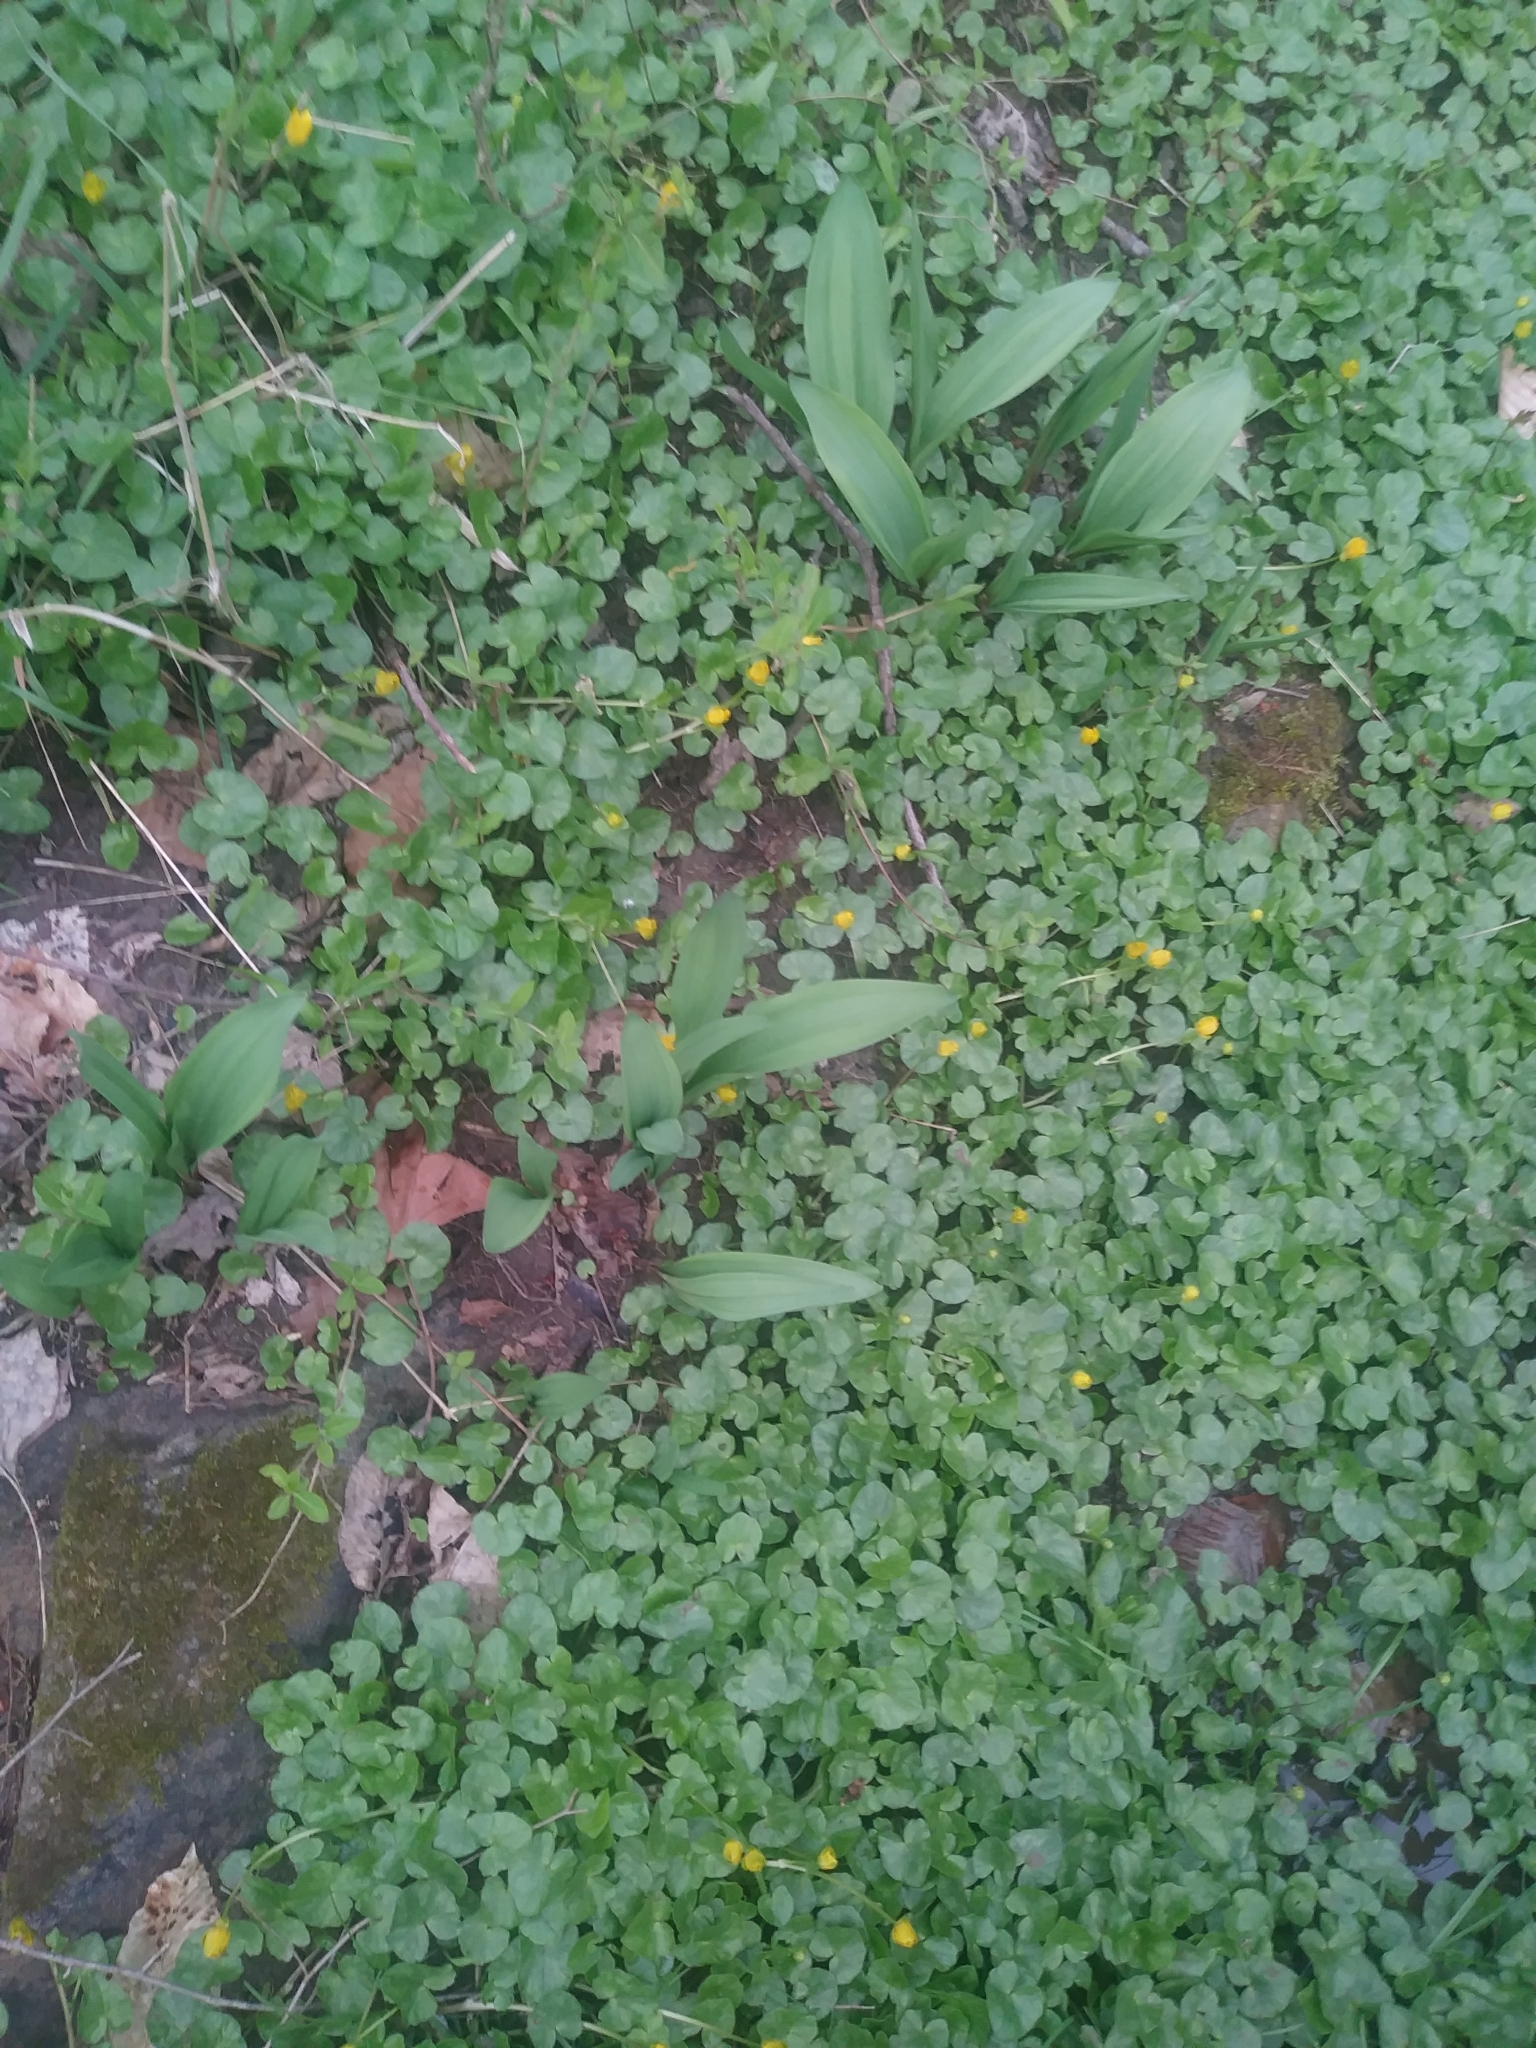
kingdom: Plantae
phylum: Tracheophyta
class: Liliopsida
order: Asparagales
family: Amaryllidaceae
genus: Allium
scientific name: Allium tricoccum
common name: Ramp
